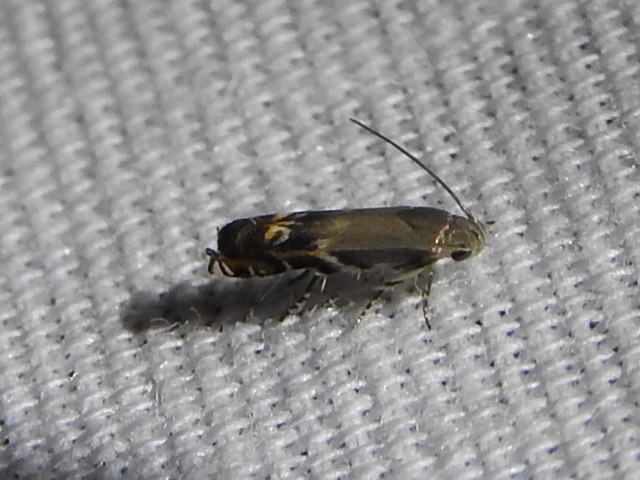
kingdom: Animalia
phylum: Arthropoda
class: Insecta
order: Lepidoptera
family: Gelechiidae
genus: Calliprora
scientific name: Calliprora sexstrigella
